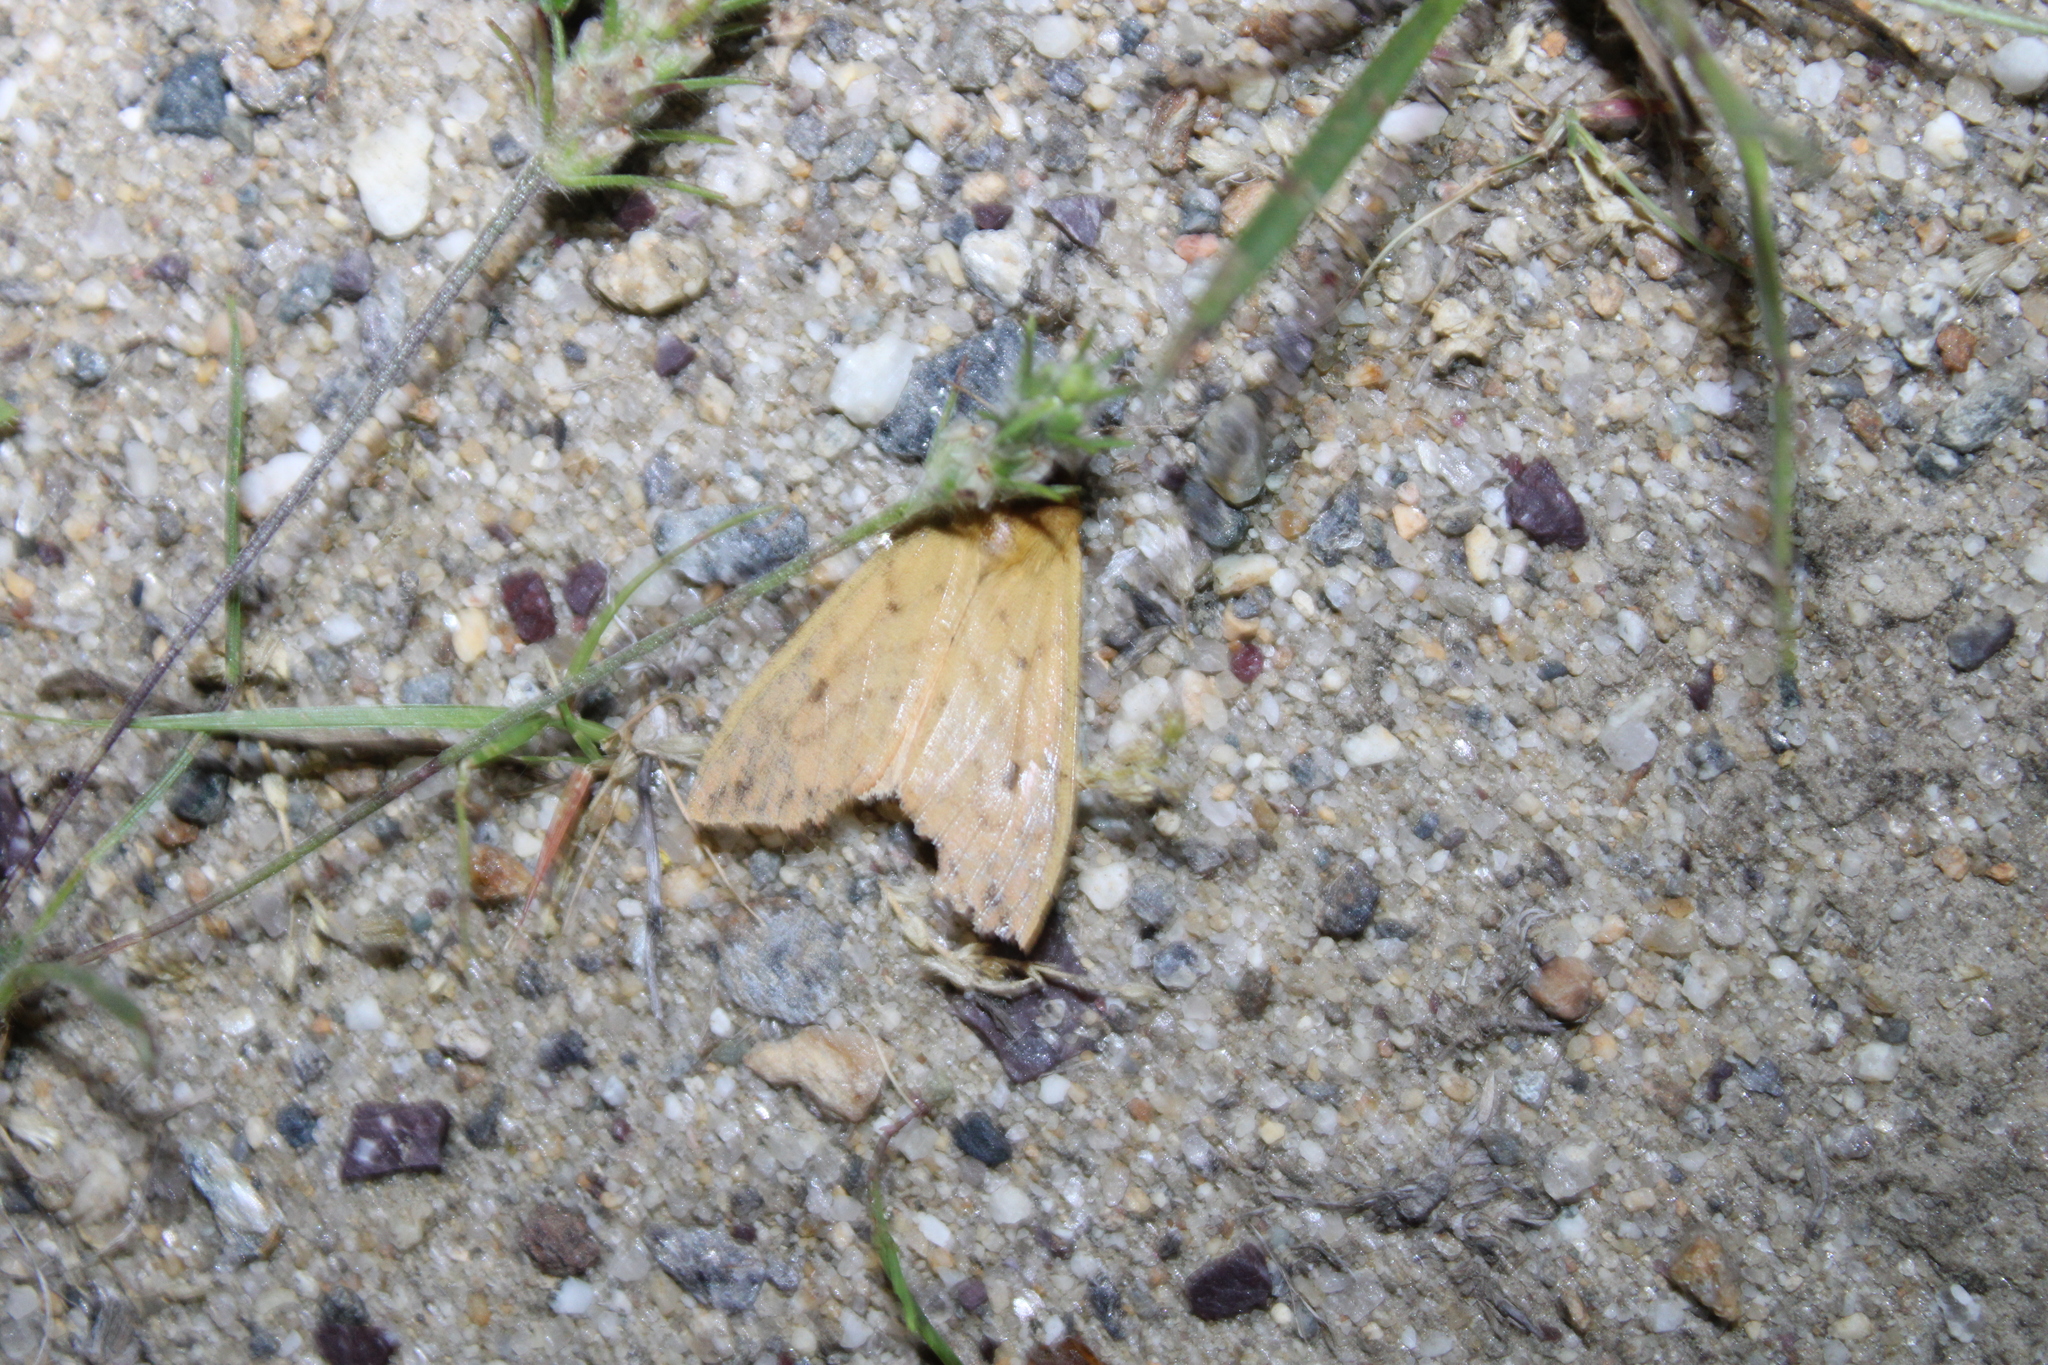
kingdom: Animalia
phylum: Arthropoda
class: Insecta
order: Lepidoptera
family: Erebidae
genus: Pyrrharctia
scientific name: Pyrrharctia isabella
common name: Isabella tiger moth
